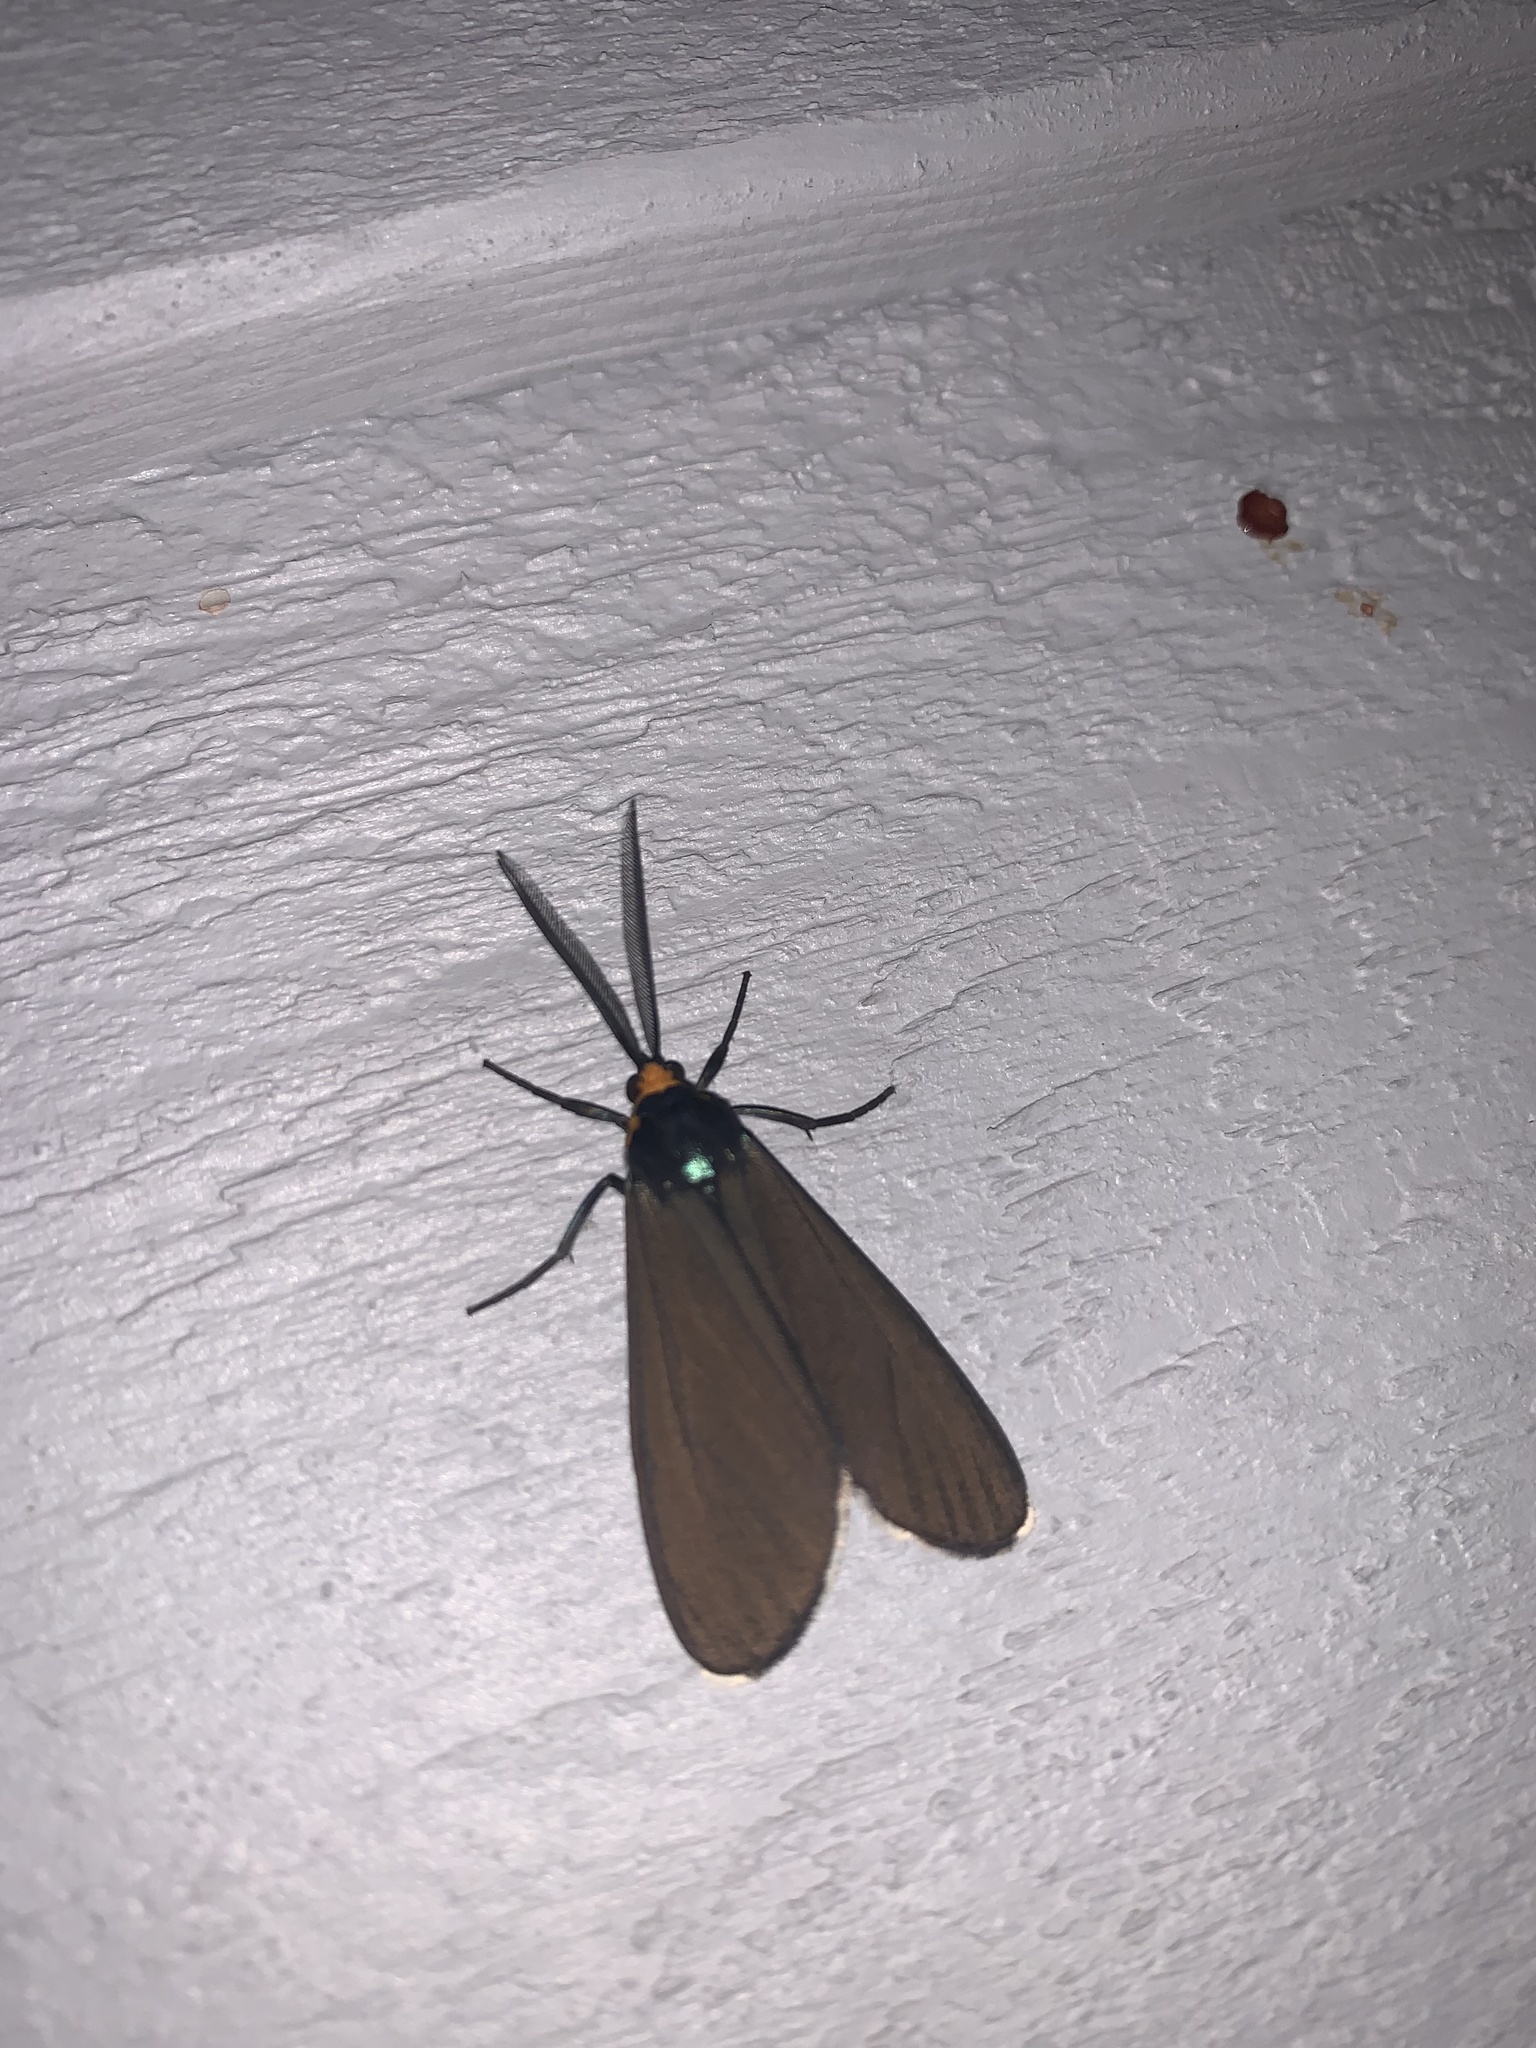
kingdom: Animalia
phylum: Arthropoda
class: Insecta
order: Lepidoptera
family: Erebidae
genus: Ctenucha
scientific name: Ctenucha virginica
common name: Virginia ctenucha moth
